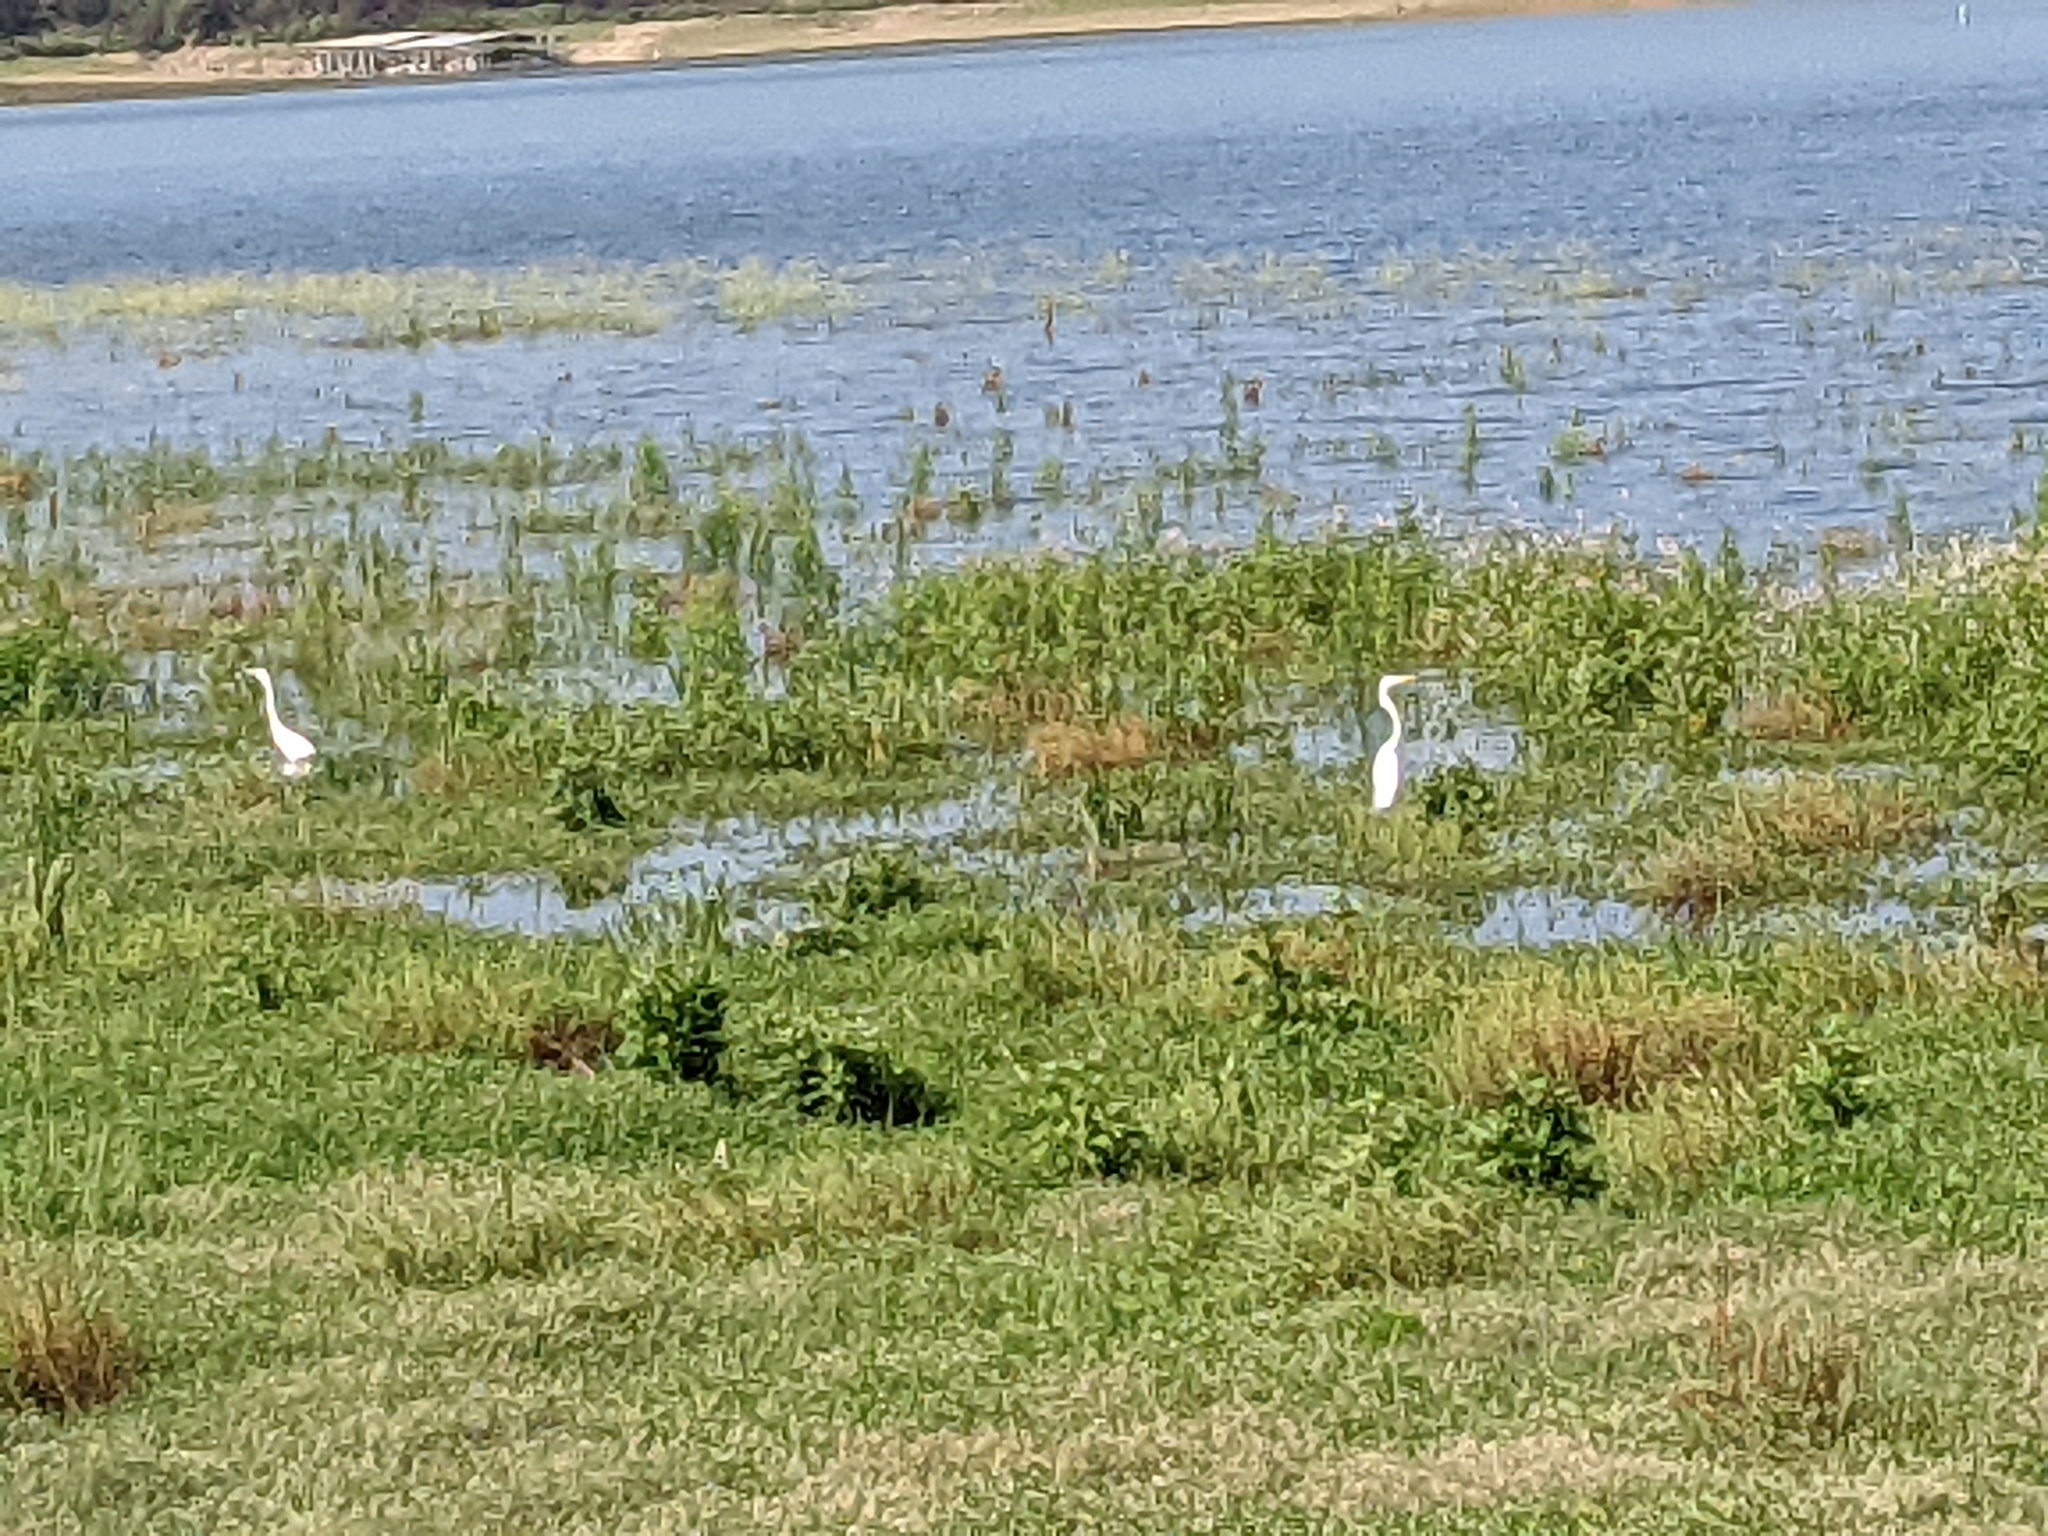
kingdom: Animalia
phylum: Chordata
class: Aves
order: Pelecaniformes
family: Ardeidae
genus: Ardea
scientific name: Ardea alba
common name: Great egret
